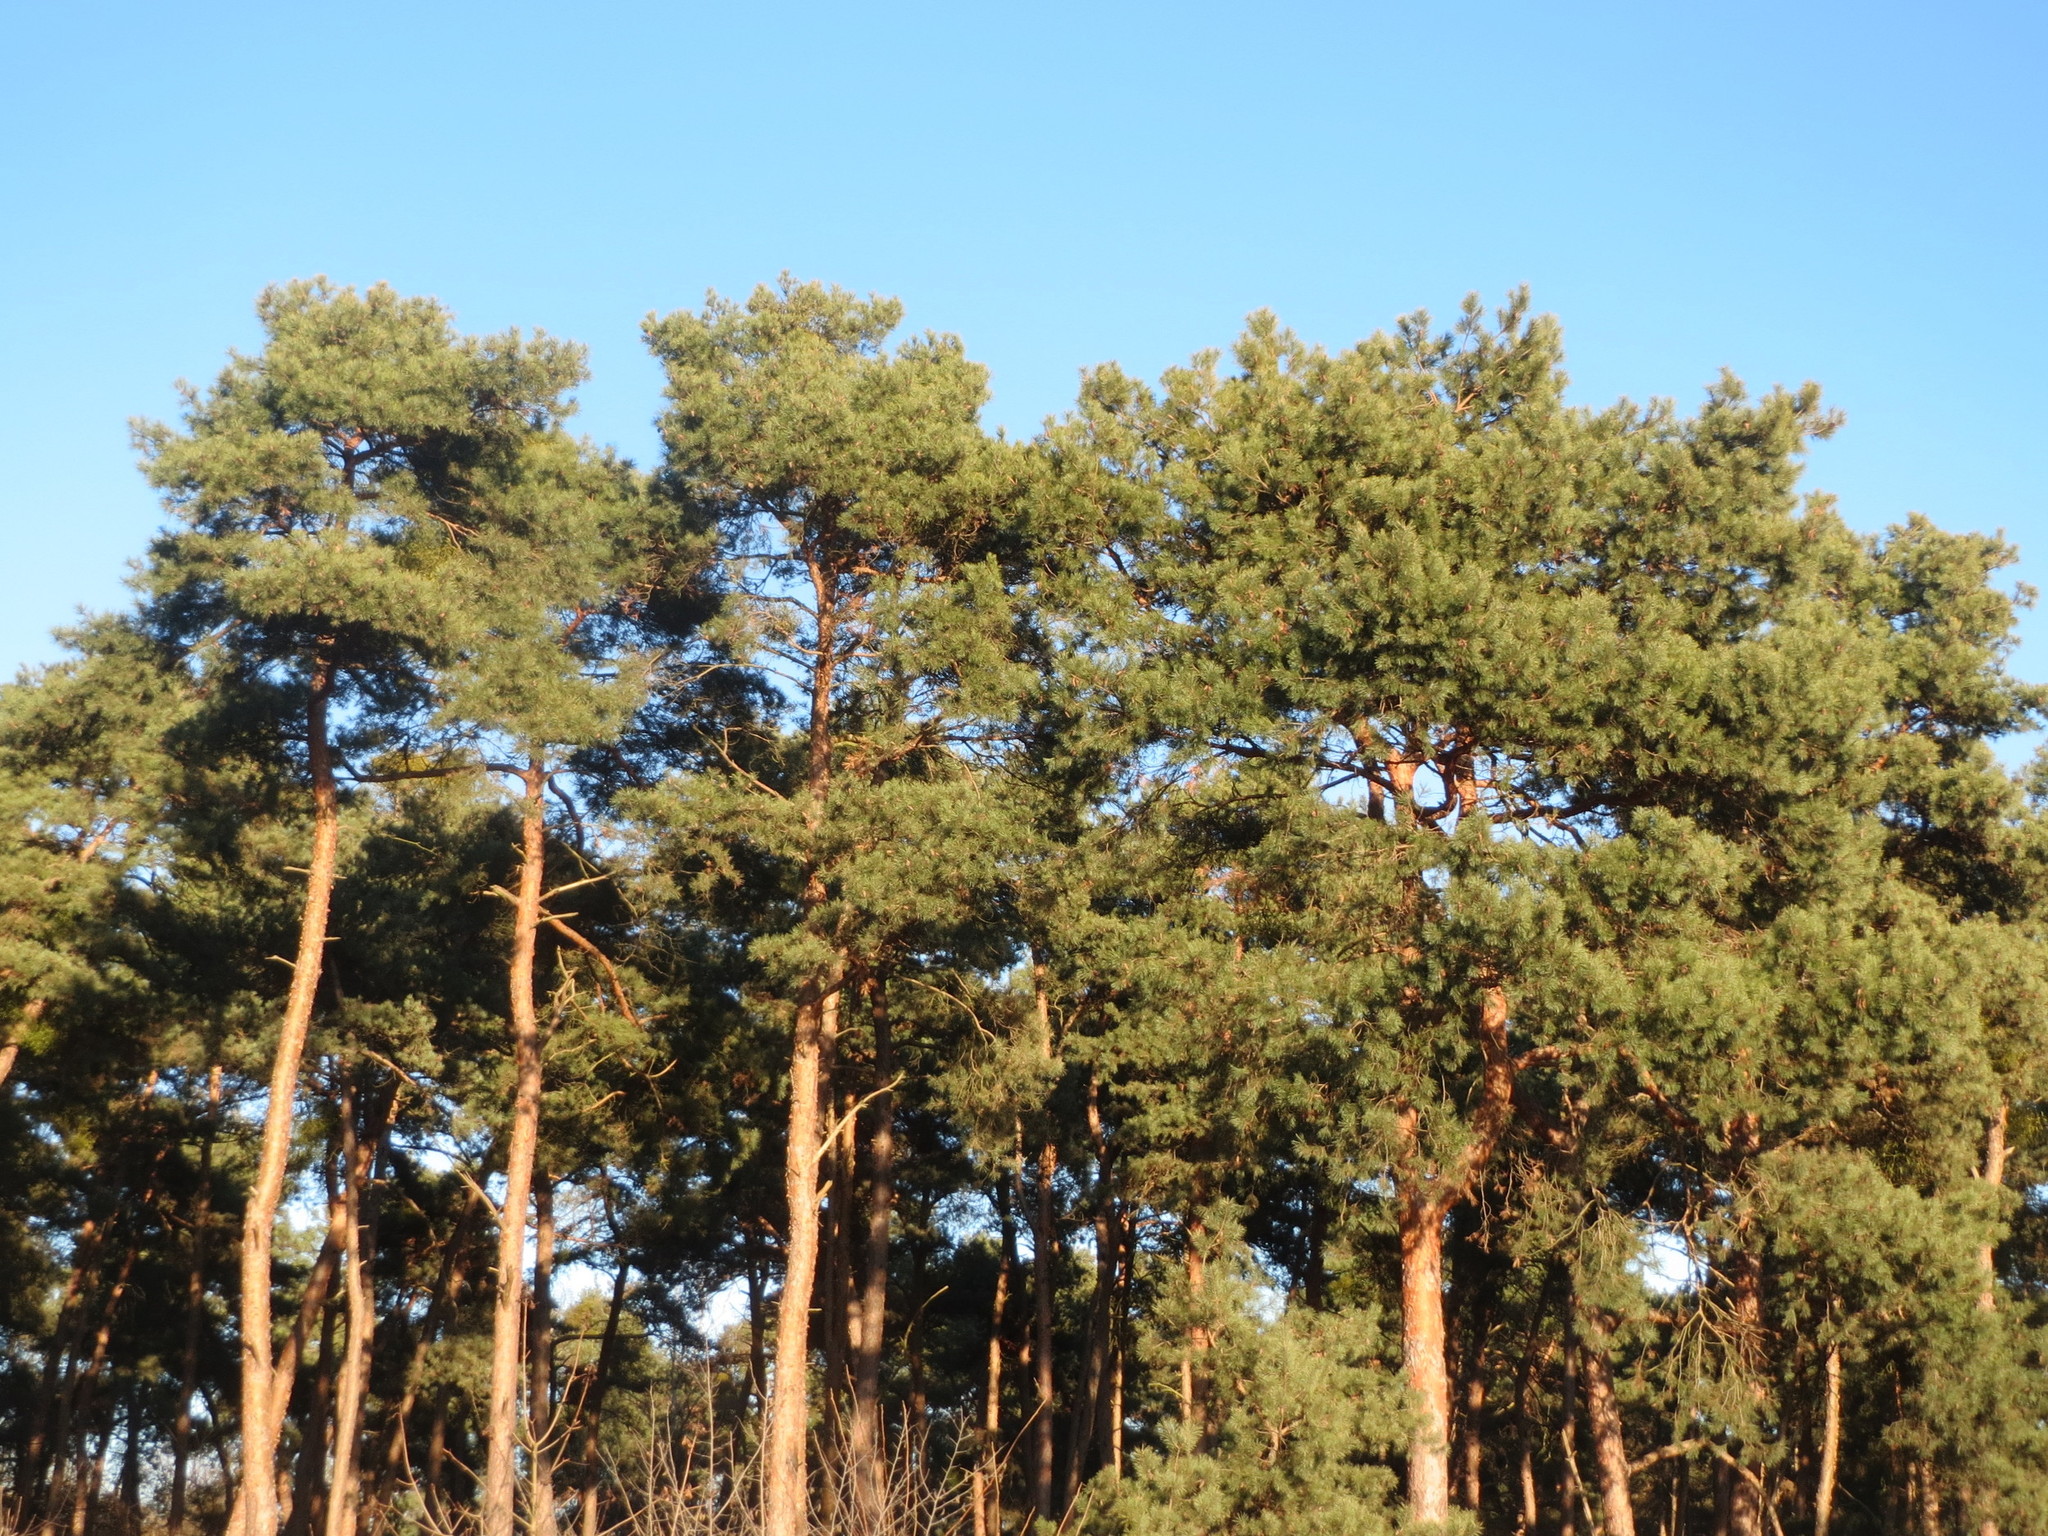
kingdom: Plantae
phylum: Tracheophyta
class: Pinopsida
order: Pinales
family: Pinaceae
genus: Pinus
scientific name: Pinus sylvestris
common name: Scots pine
